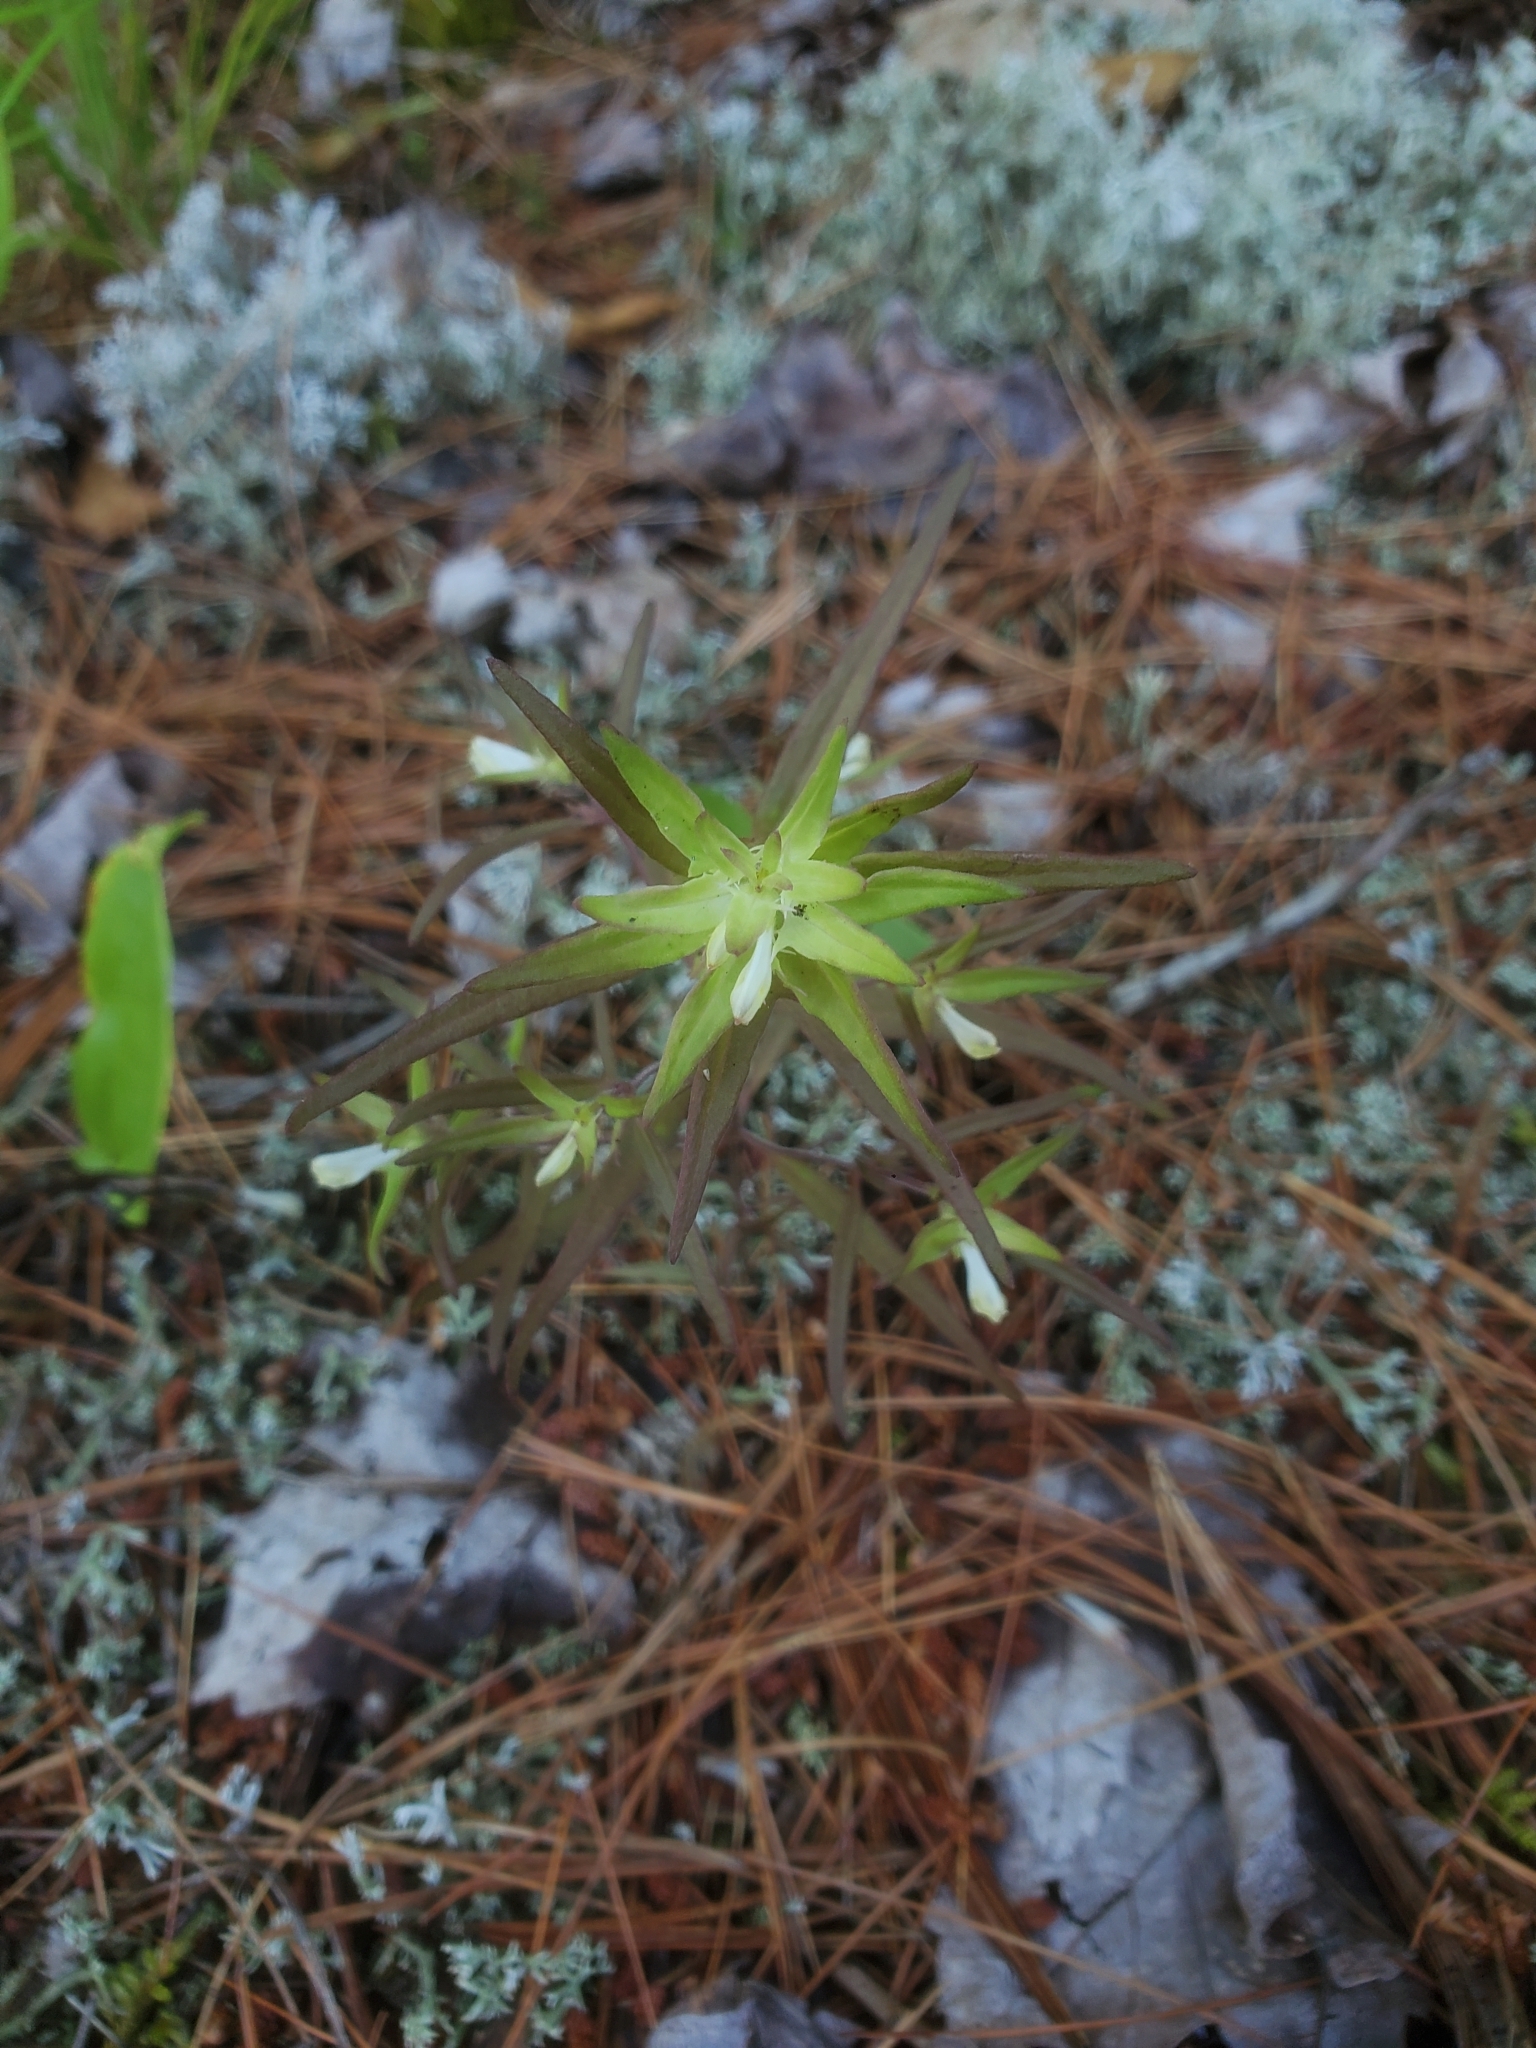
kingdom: Plantae
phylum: Tracheophyta
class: Magnoliopsida
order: Lamiales
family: Orobanchaceae
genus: Melampyrum
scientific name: Melampyrum lineare
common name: American cow-wheat
